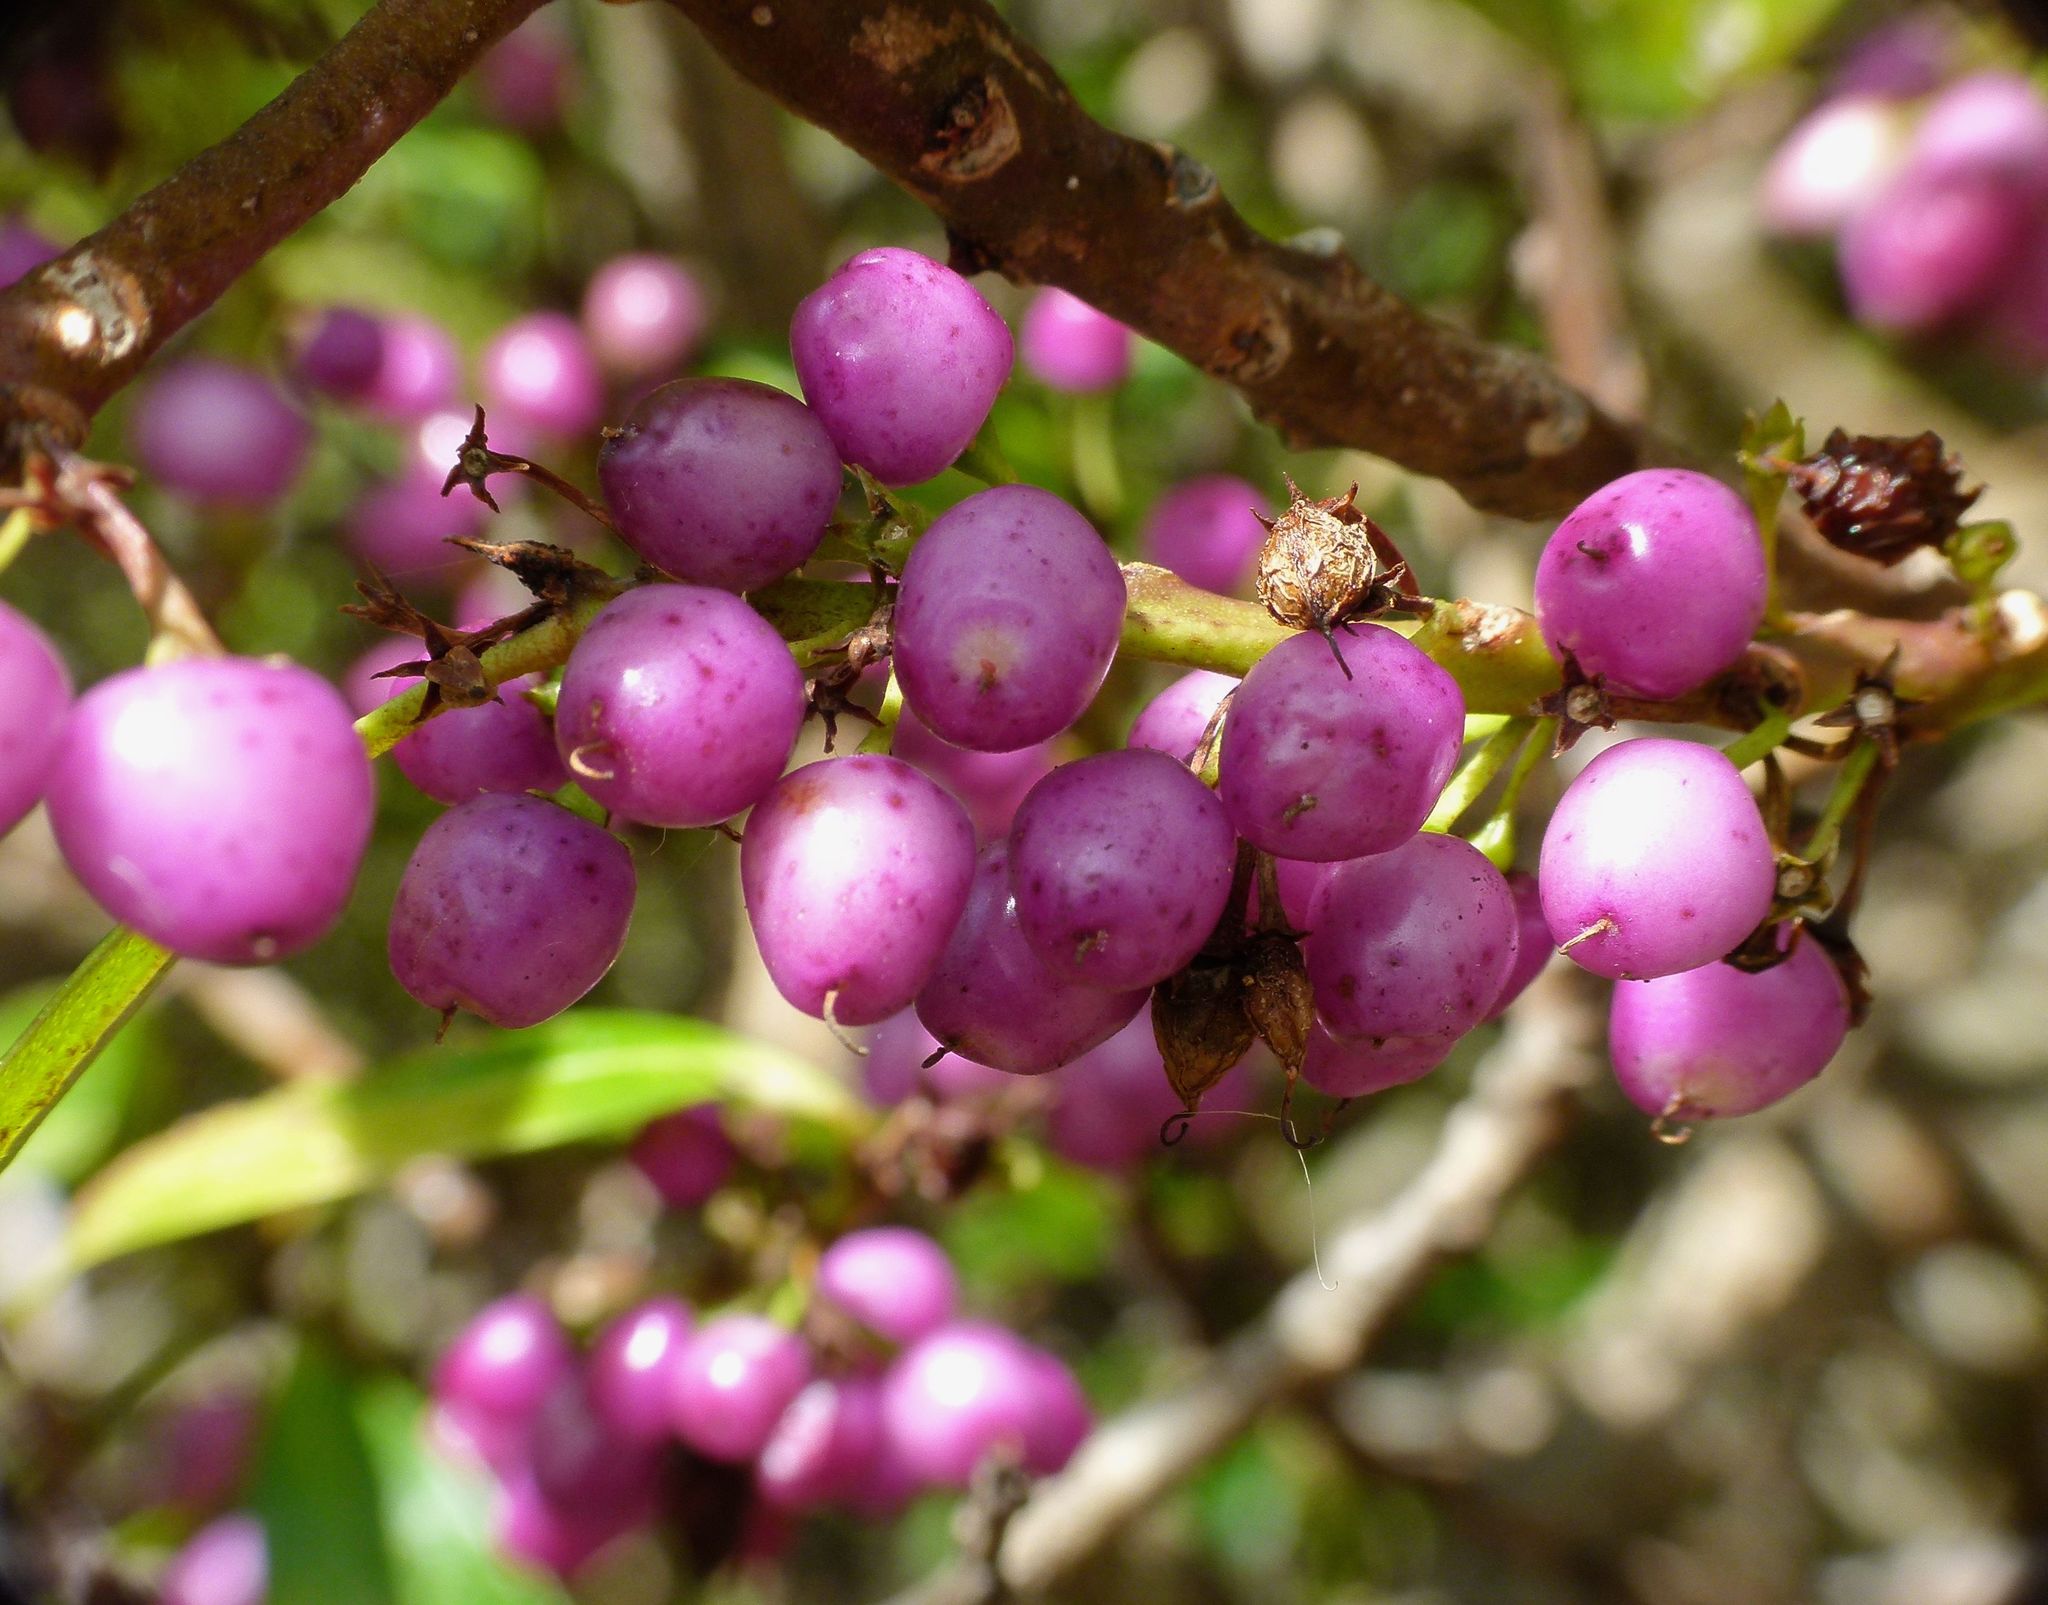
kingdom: Plantae
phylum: Tracheophyta
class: Magnoliopsida
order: Lamiales
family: Scrophulariaceae
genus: Myoporum
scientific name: Myoporum laetum
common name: Ngaio tree
